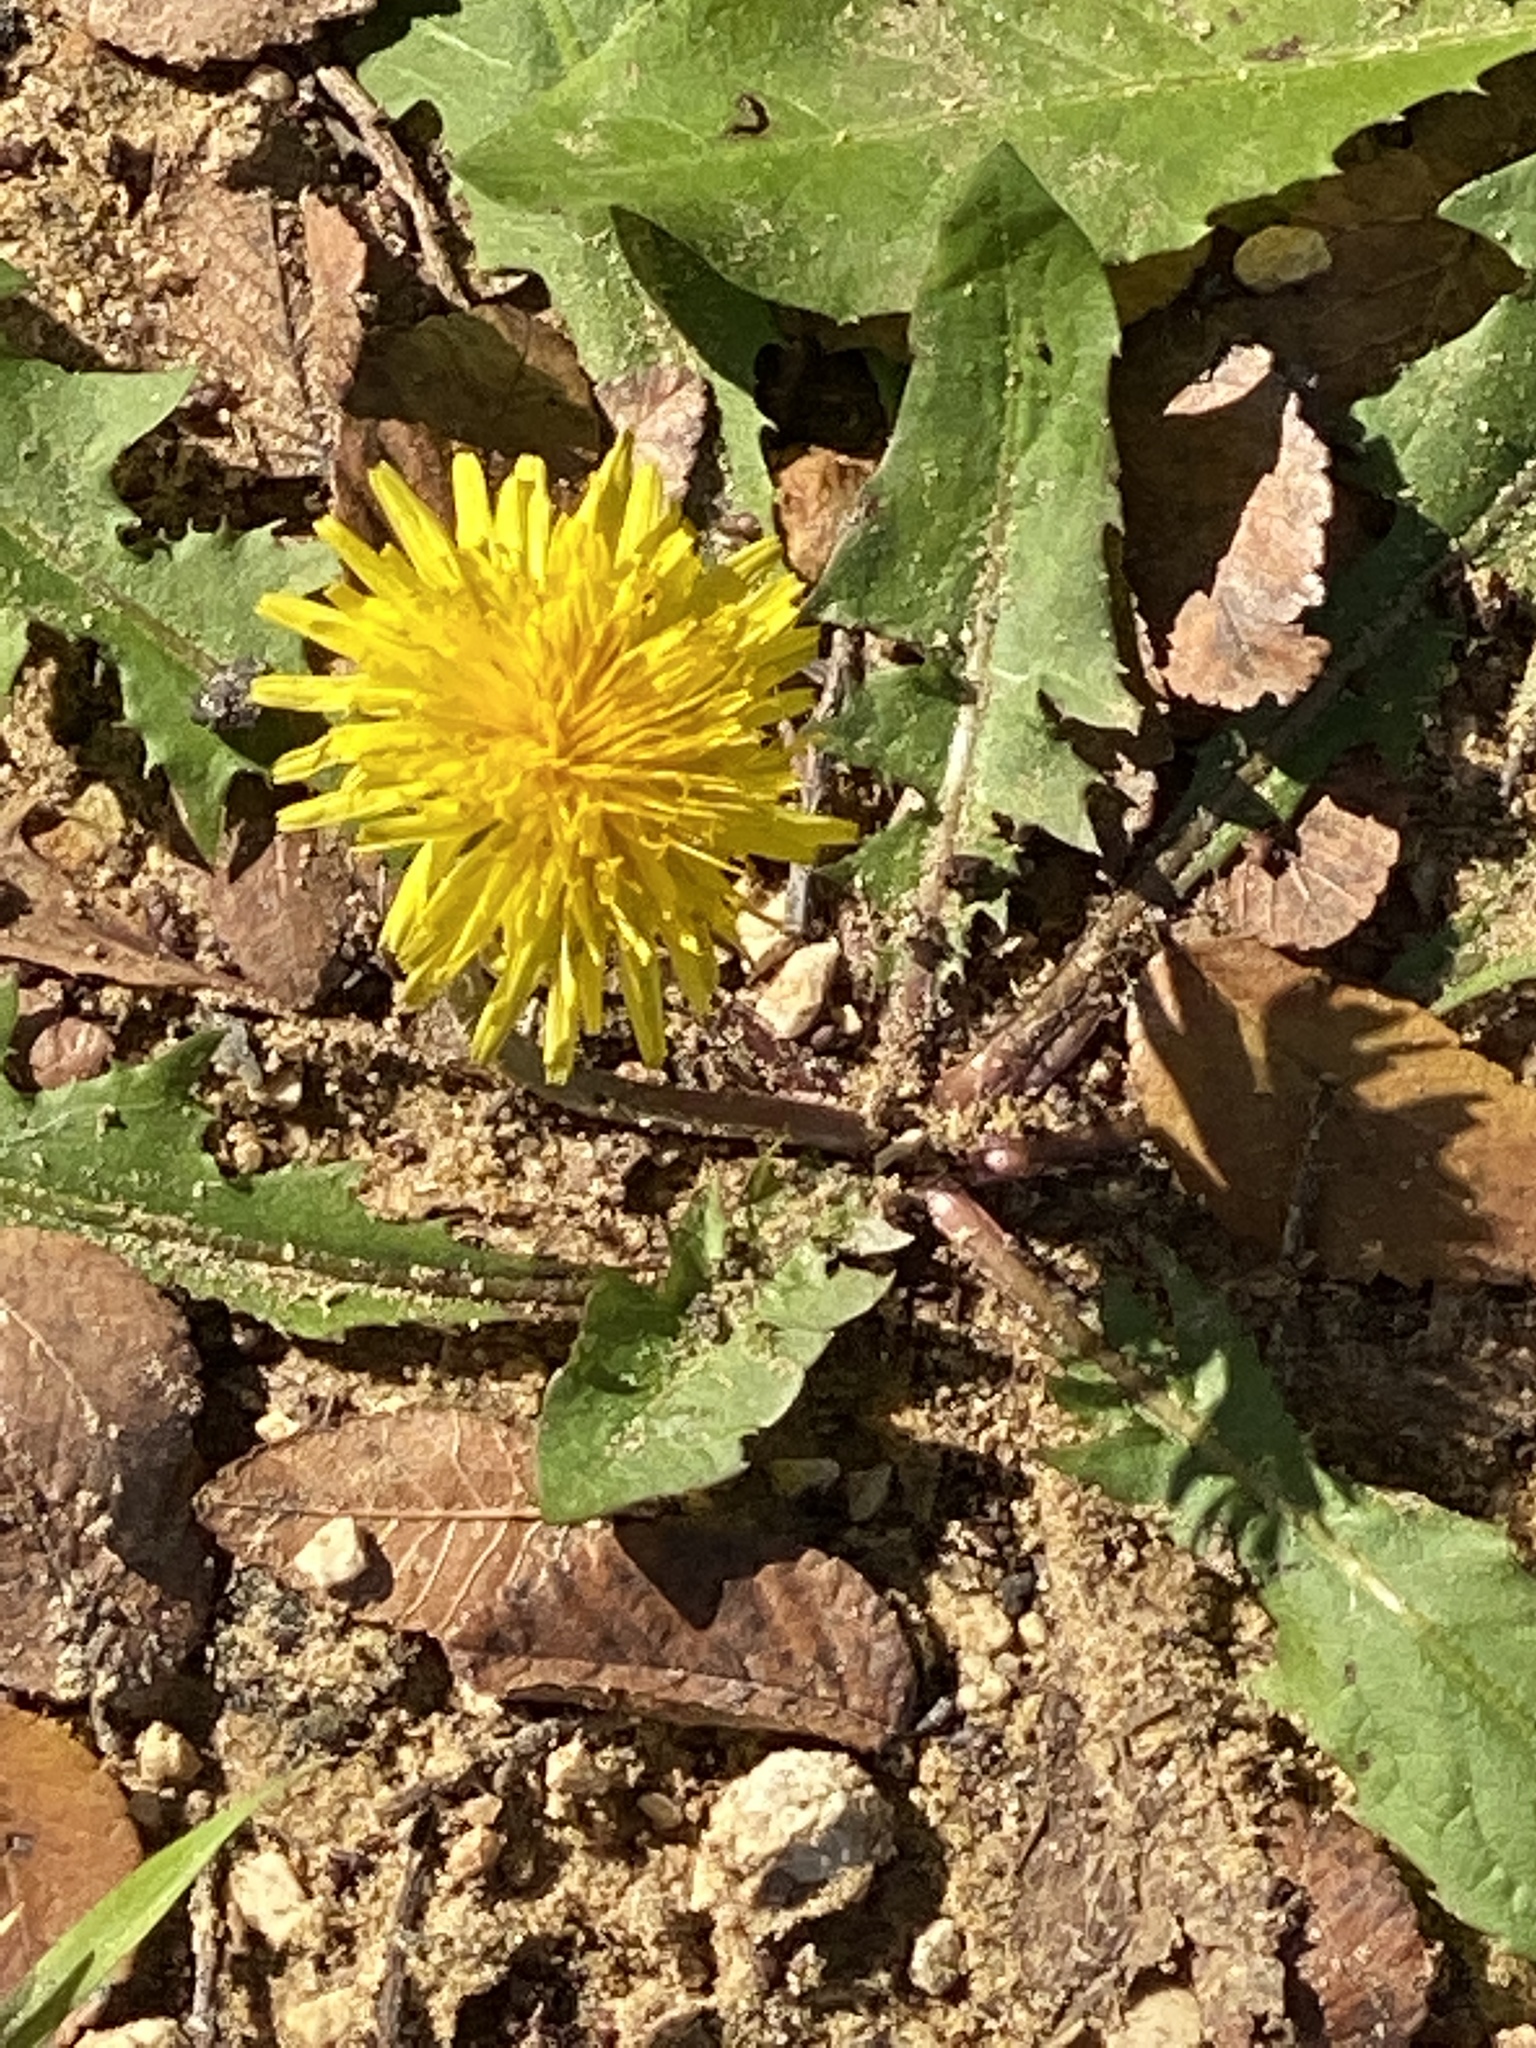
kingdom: Plantae
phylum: Tracheophyta
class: Magnoliopsida
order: Asterales
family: Asteraceae
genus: Taraxacum
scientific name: Taraxacum officinale
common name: Common dandelion
